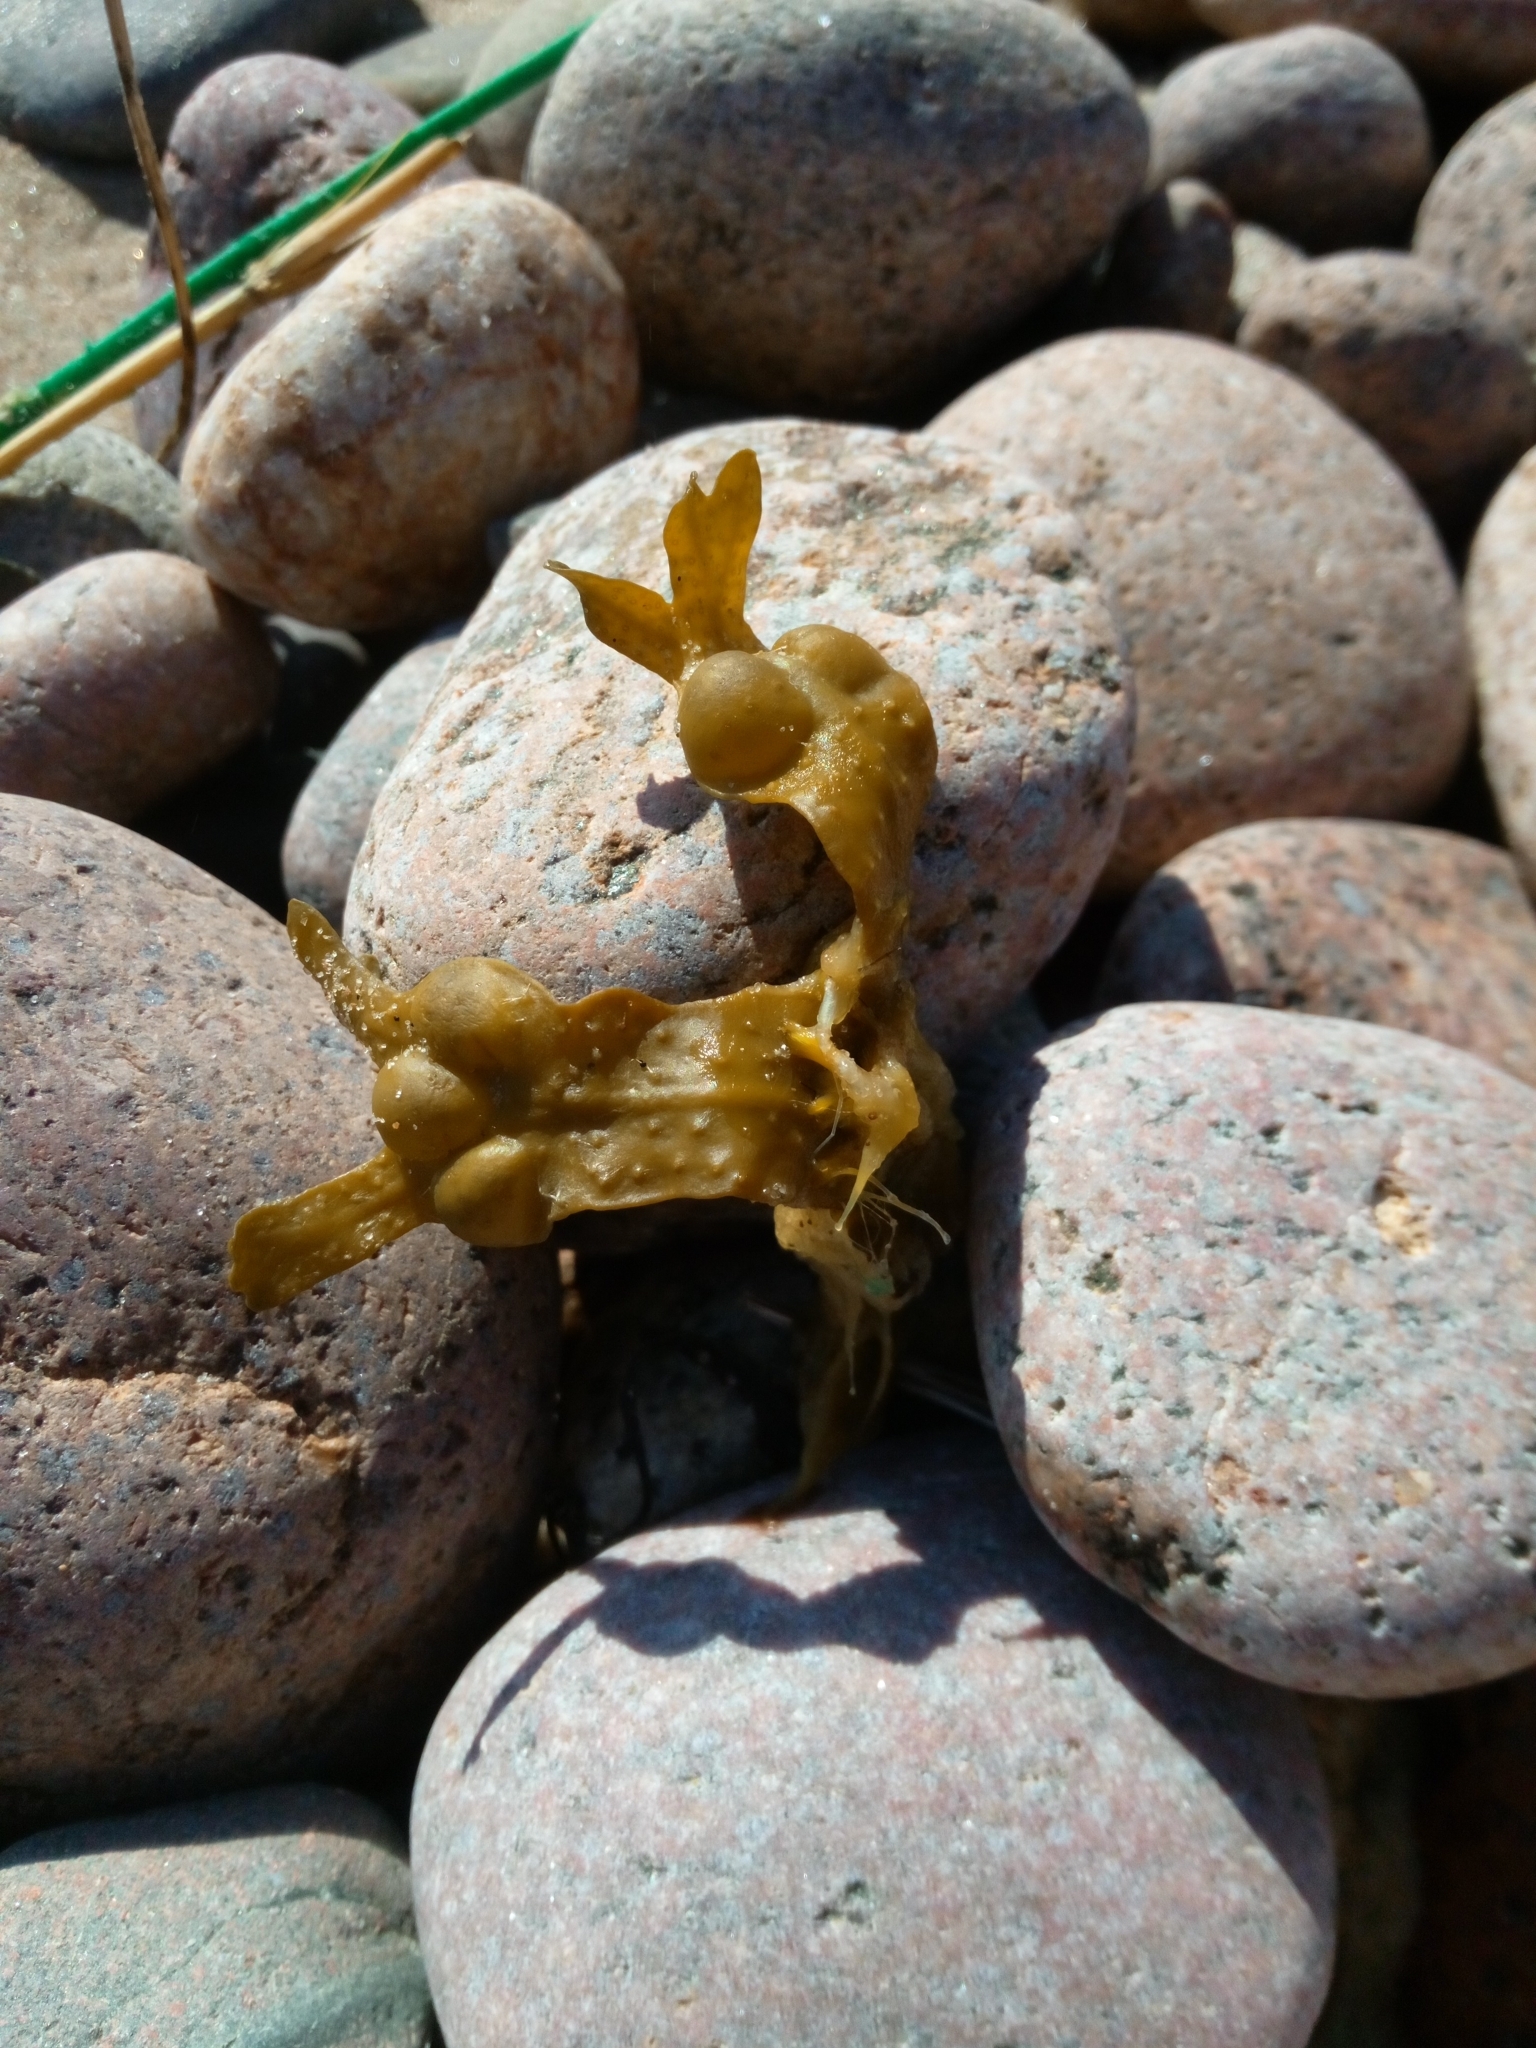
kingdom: Chromista
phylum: Ochrophyta
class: Phaeophyceae
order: Fucales
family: Fucaceae
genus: Fucus
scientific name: Fucus vesiculosus
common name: Bladder wrack
